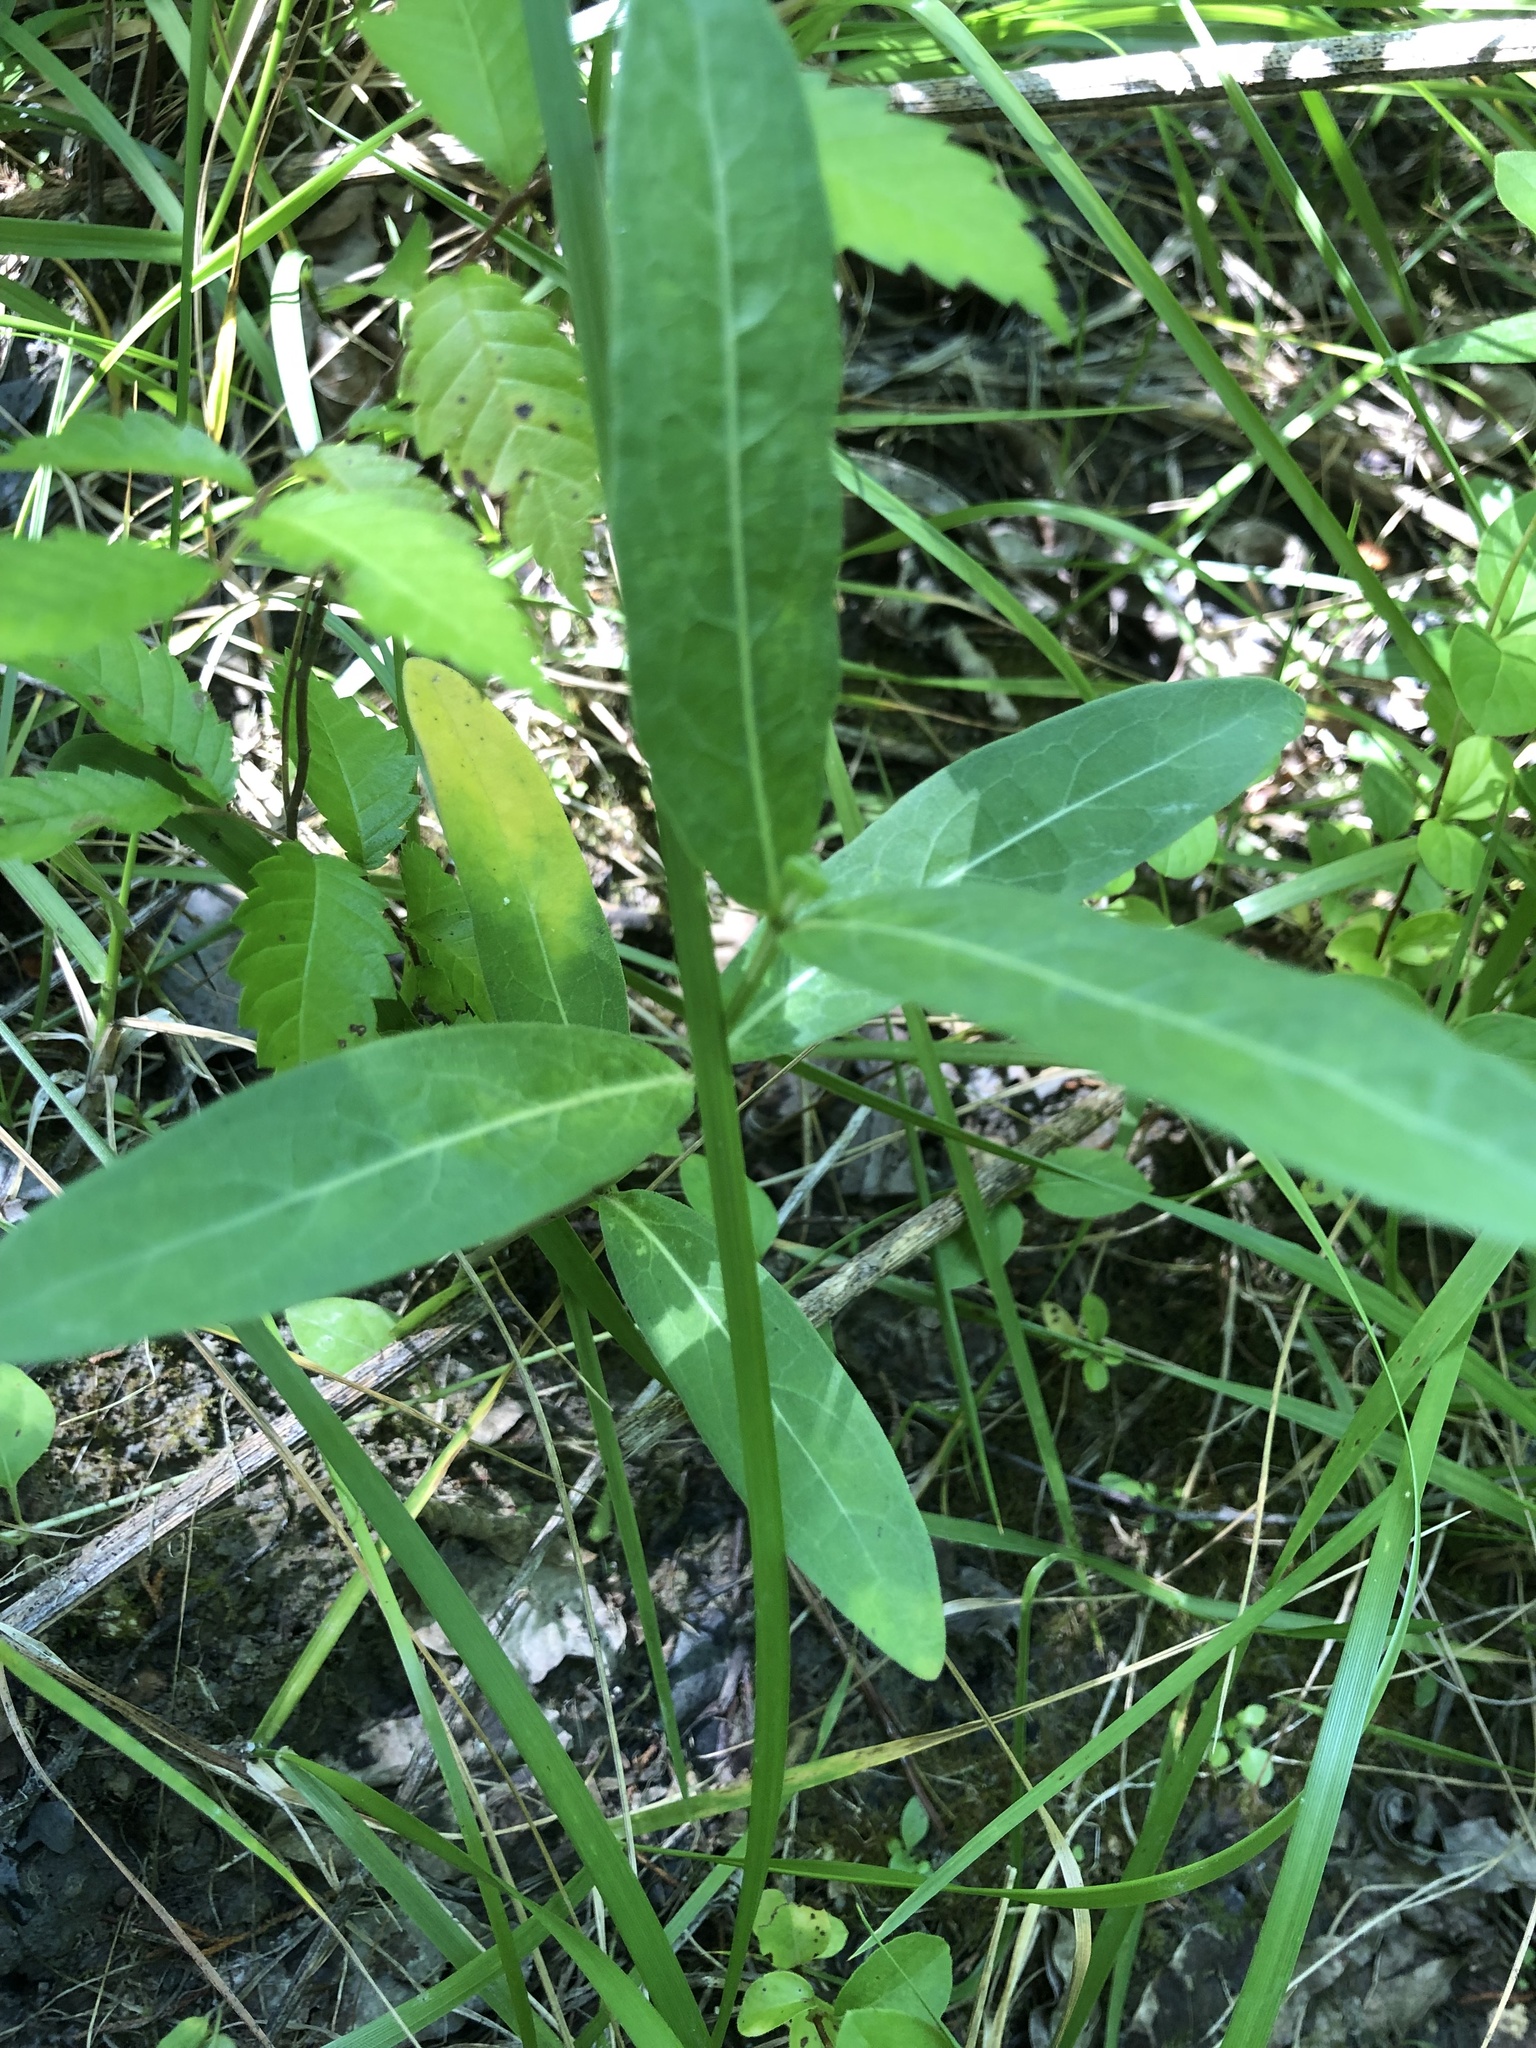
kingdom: Plantae
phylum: Tracheophyta
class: Magnoliopsida
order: Gentianales
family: Apocynaceae
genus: Asclepias
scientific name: Asclepias viridiflora
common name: Green comet milkweed
